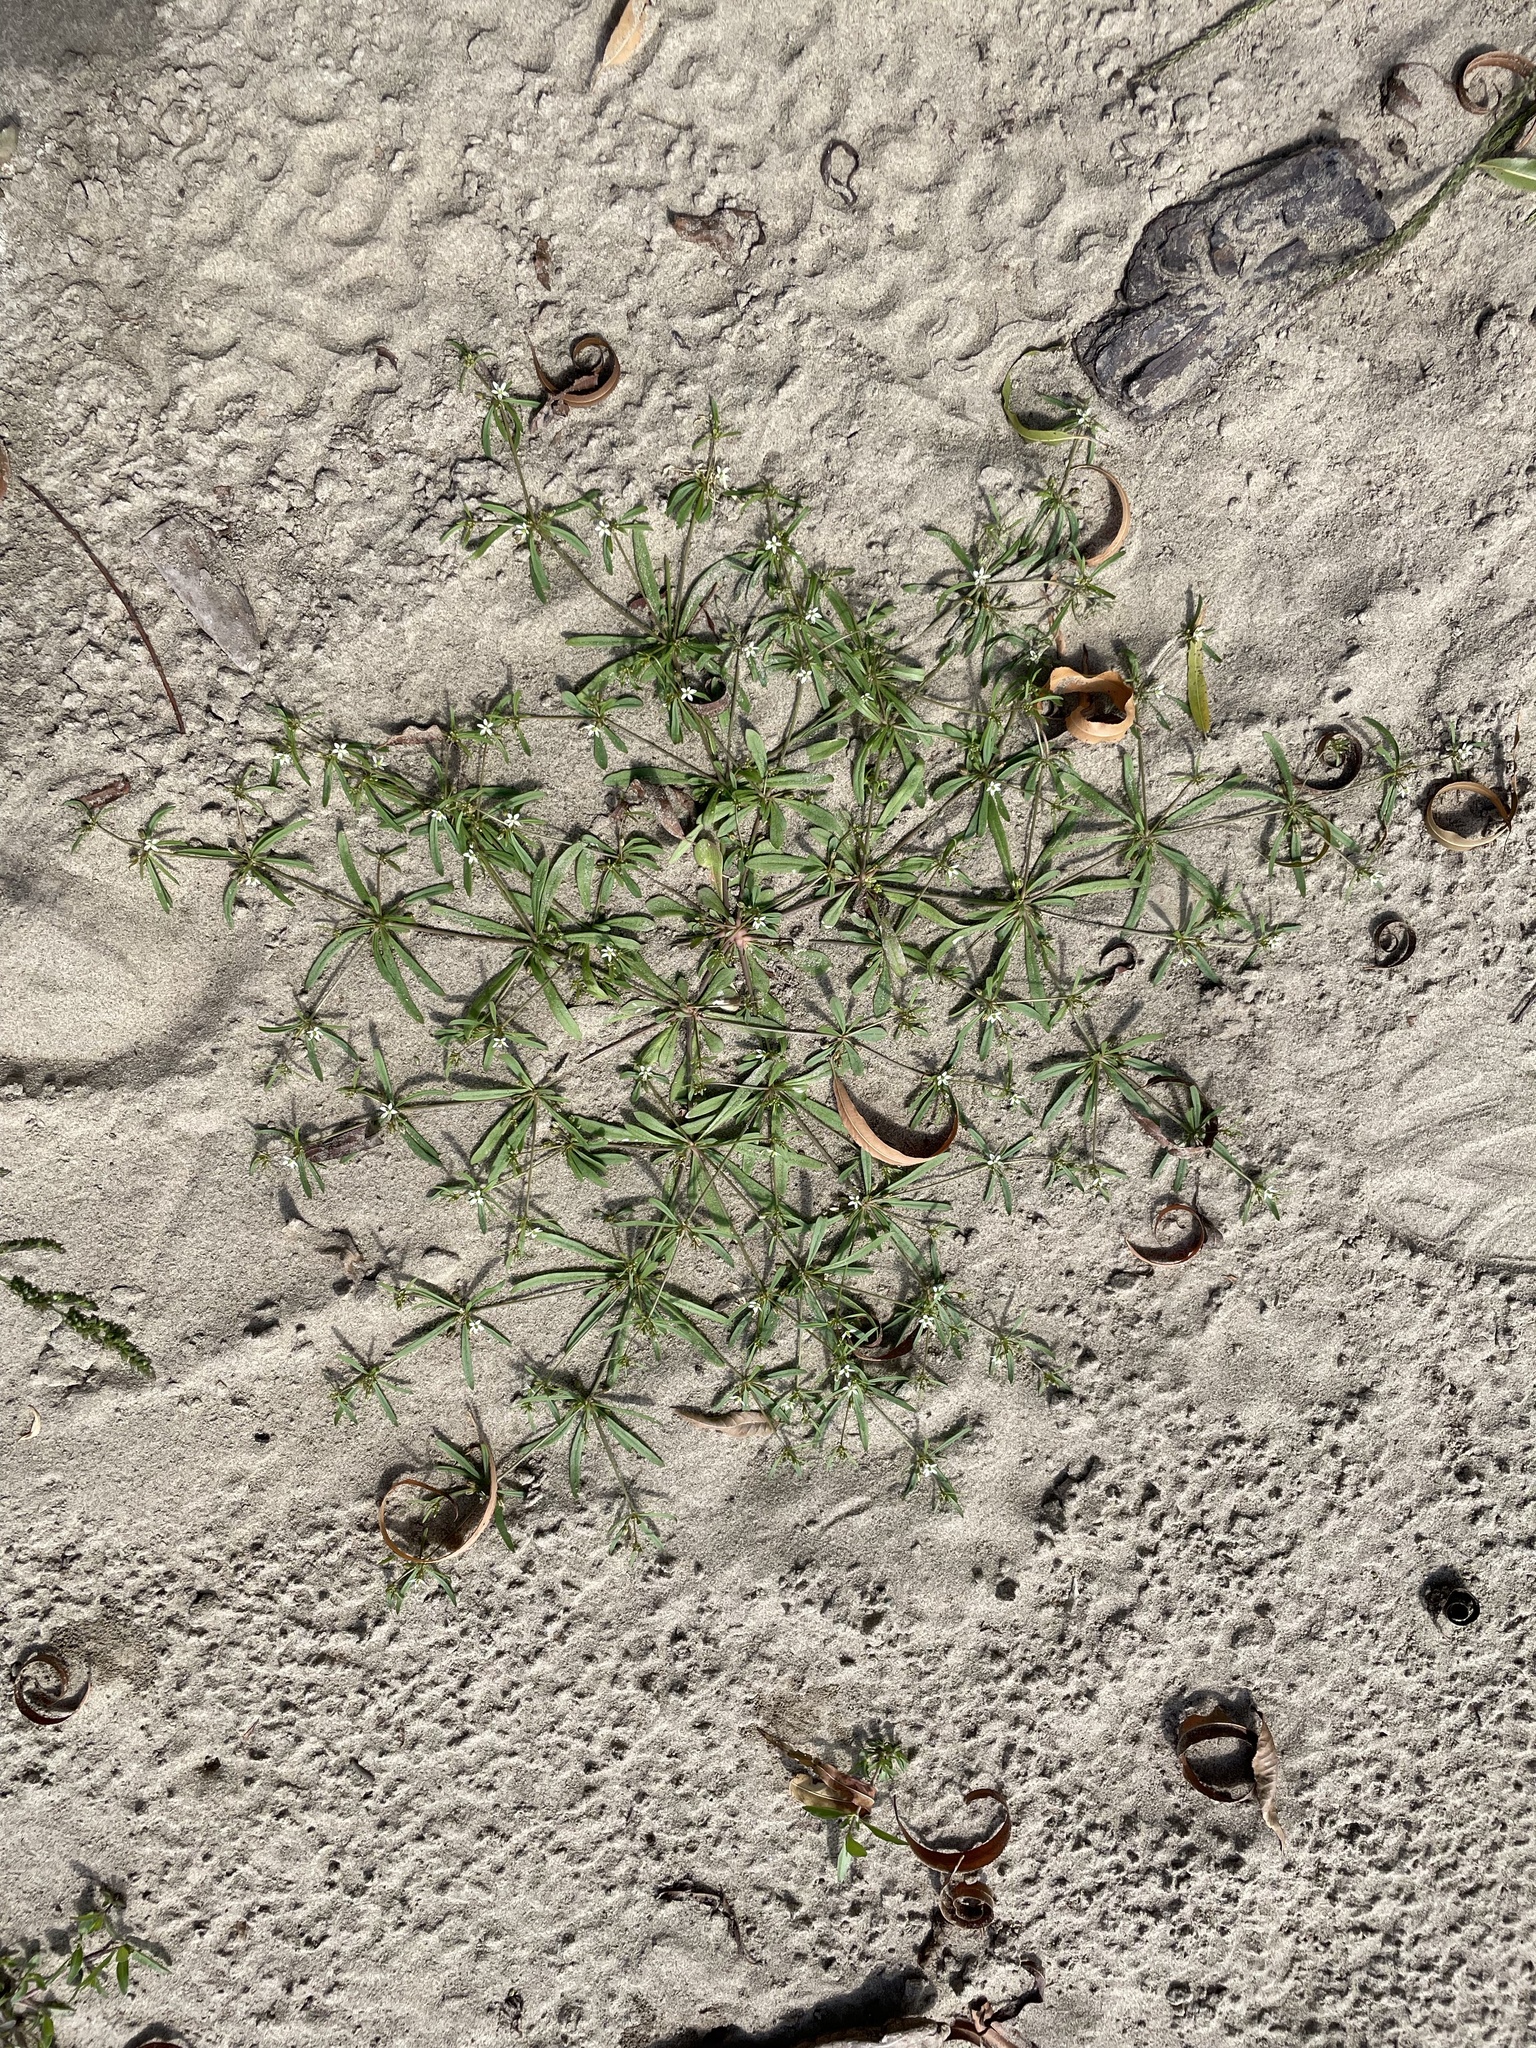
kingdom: Plantae
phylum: Tracheophyta
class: Magnoliopsida
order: Caryophyllales
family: Molluginaceae
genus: Mollugo
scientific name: Mollugo verticillata
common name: Green carpetweed
